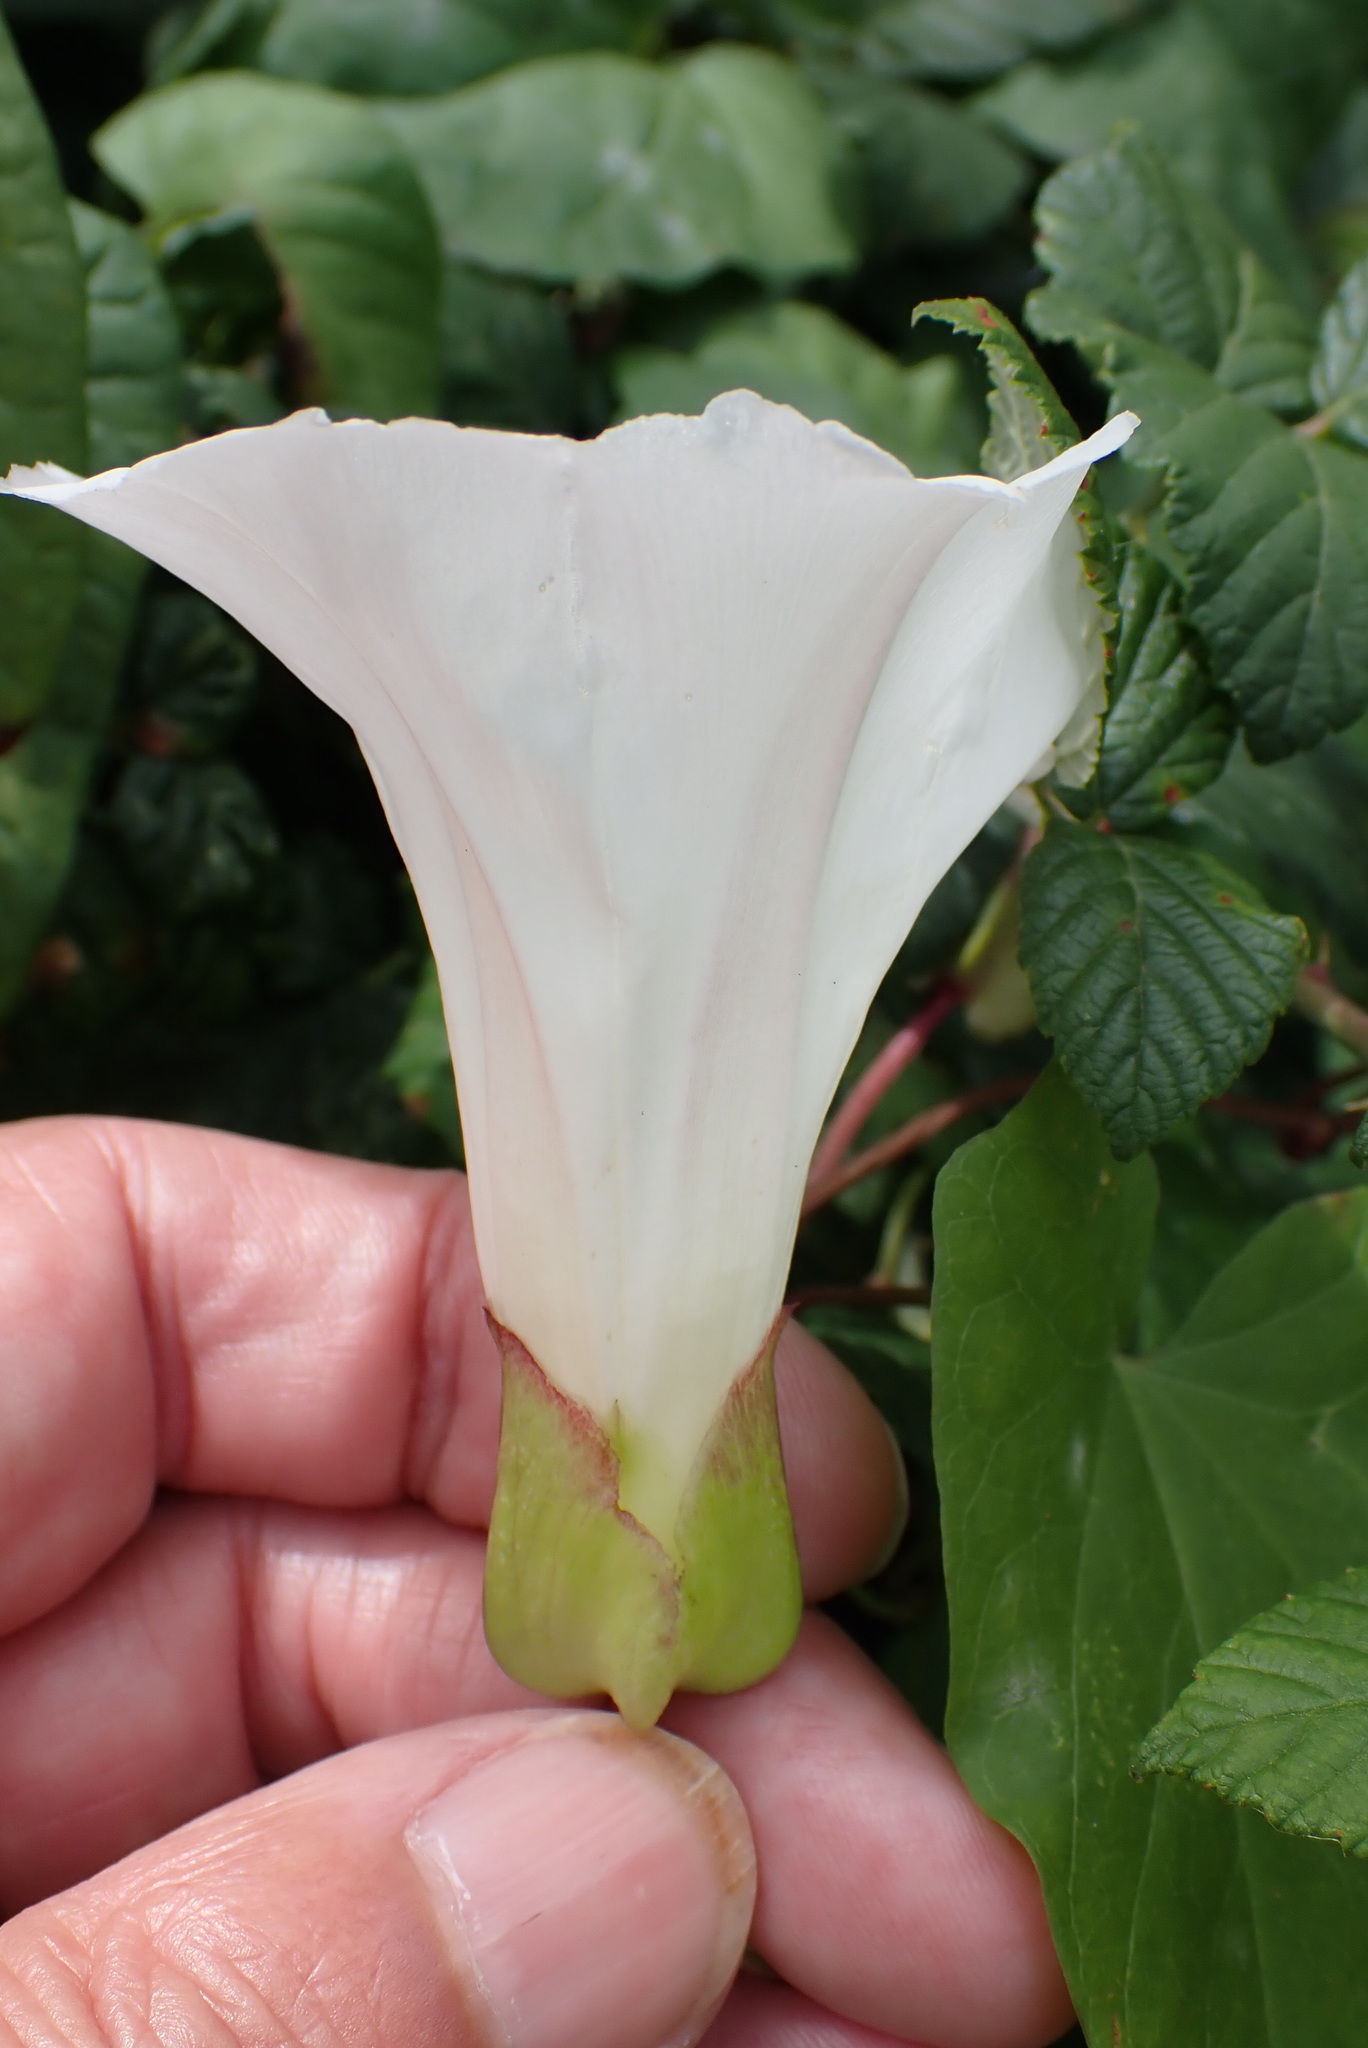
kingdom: Plantae
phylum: Tracheophyta
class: Magnoliopsida
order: Solanales
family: Convolvulaceae
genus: Calystegia
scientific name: Calystegia sepium
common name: Hedge bindweed
